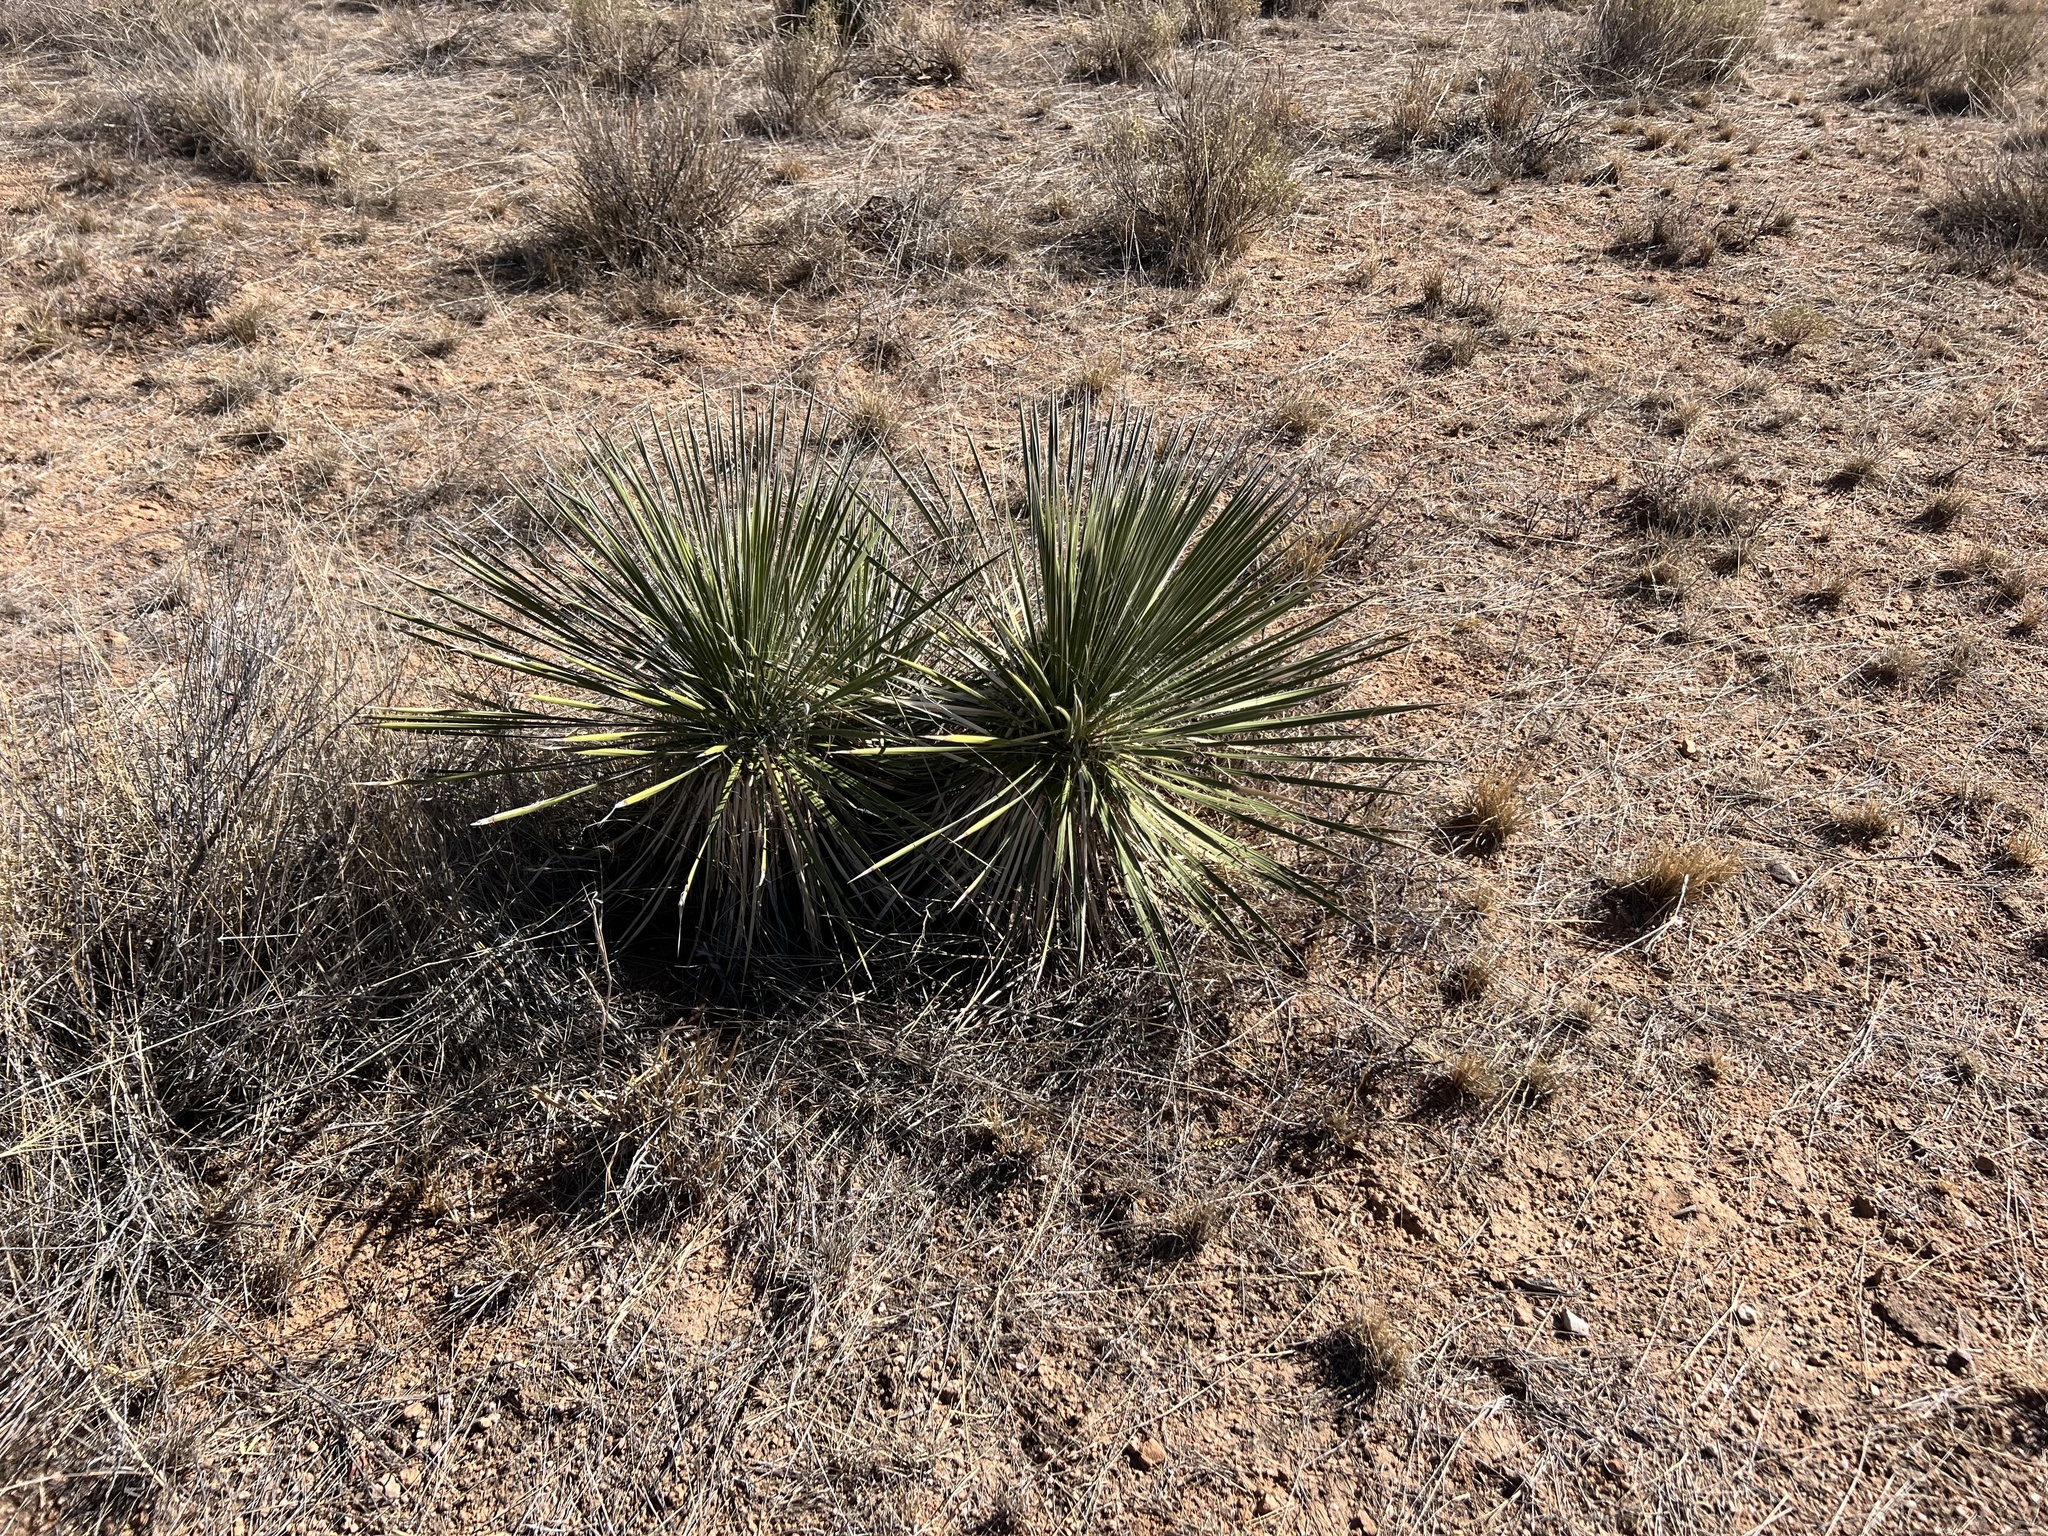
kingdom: Plantae
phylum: Tracheophyta
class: Liliopsida
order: Asparagales
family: Asparagaceae
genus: Yucca
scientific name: Yucca elata
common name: Palmella
